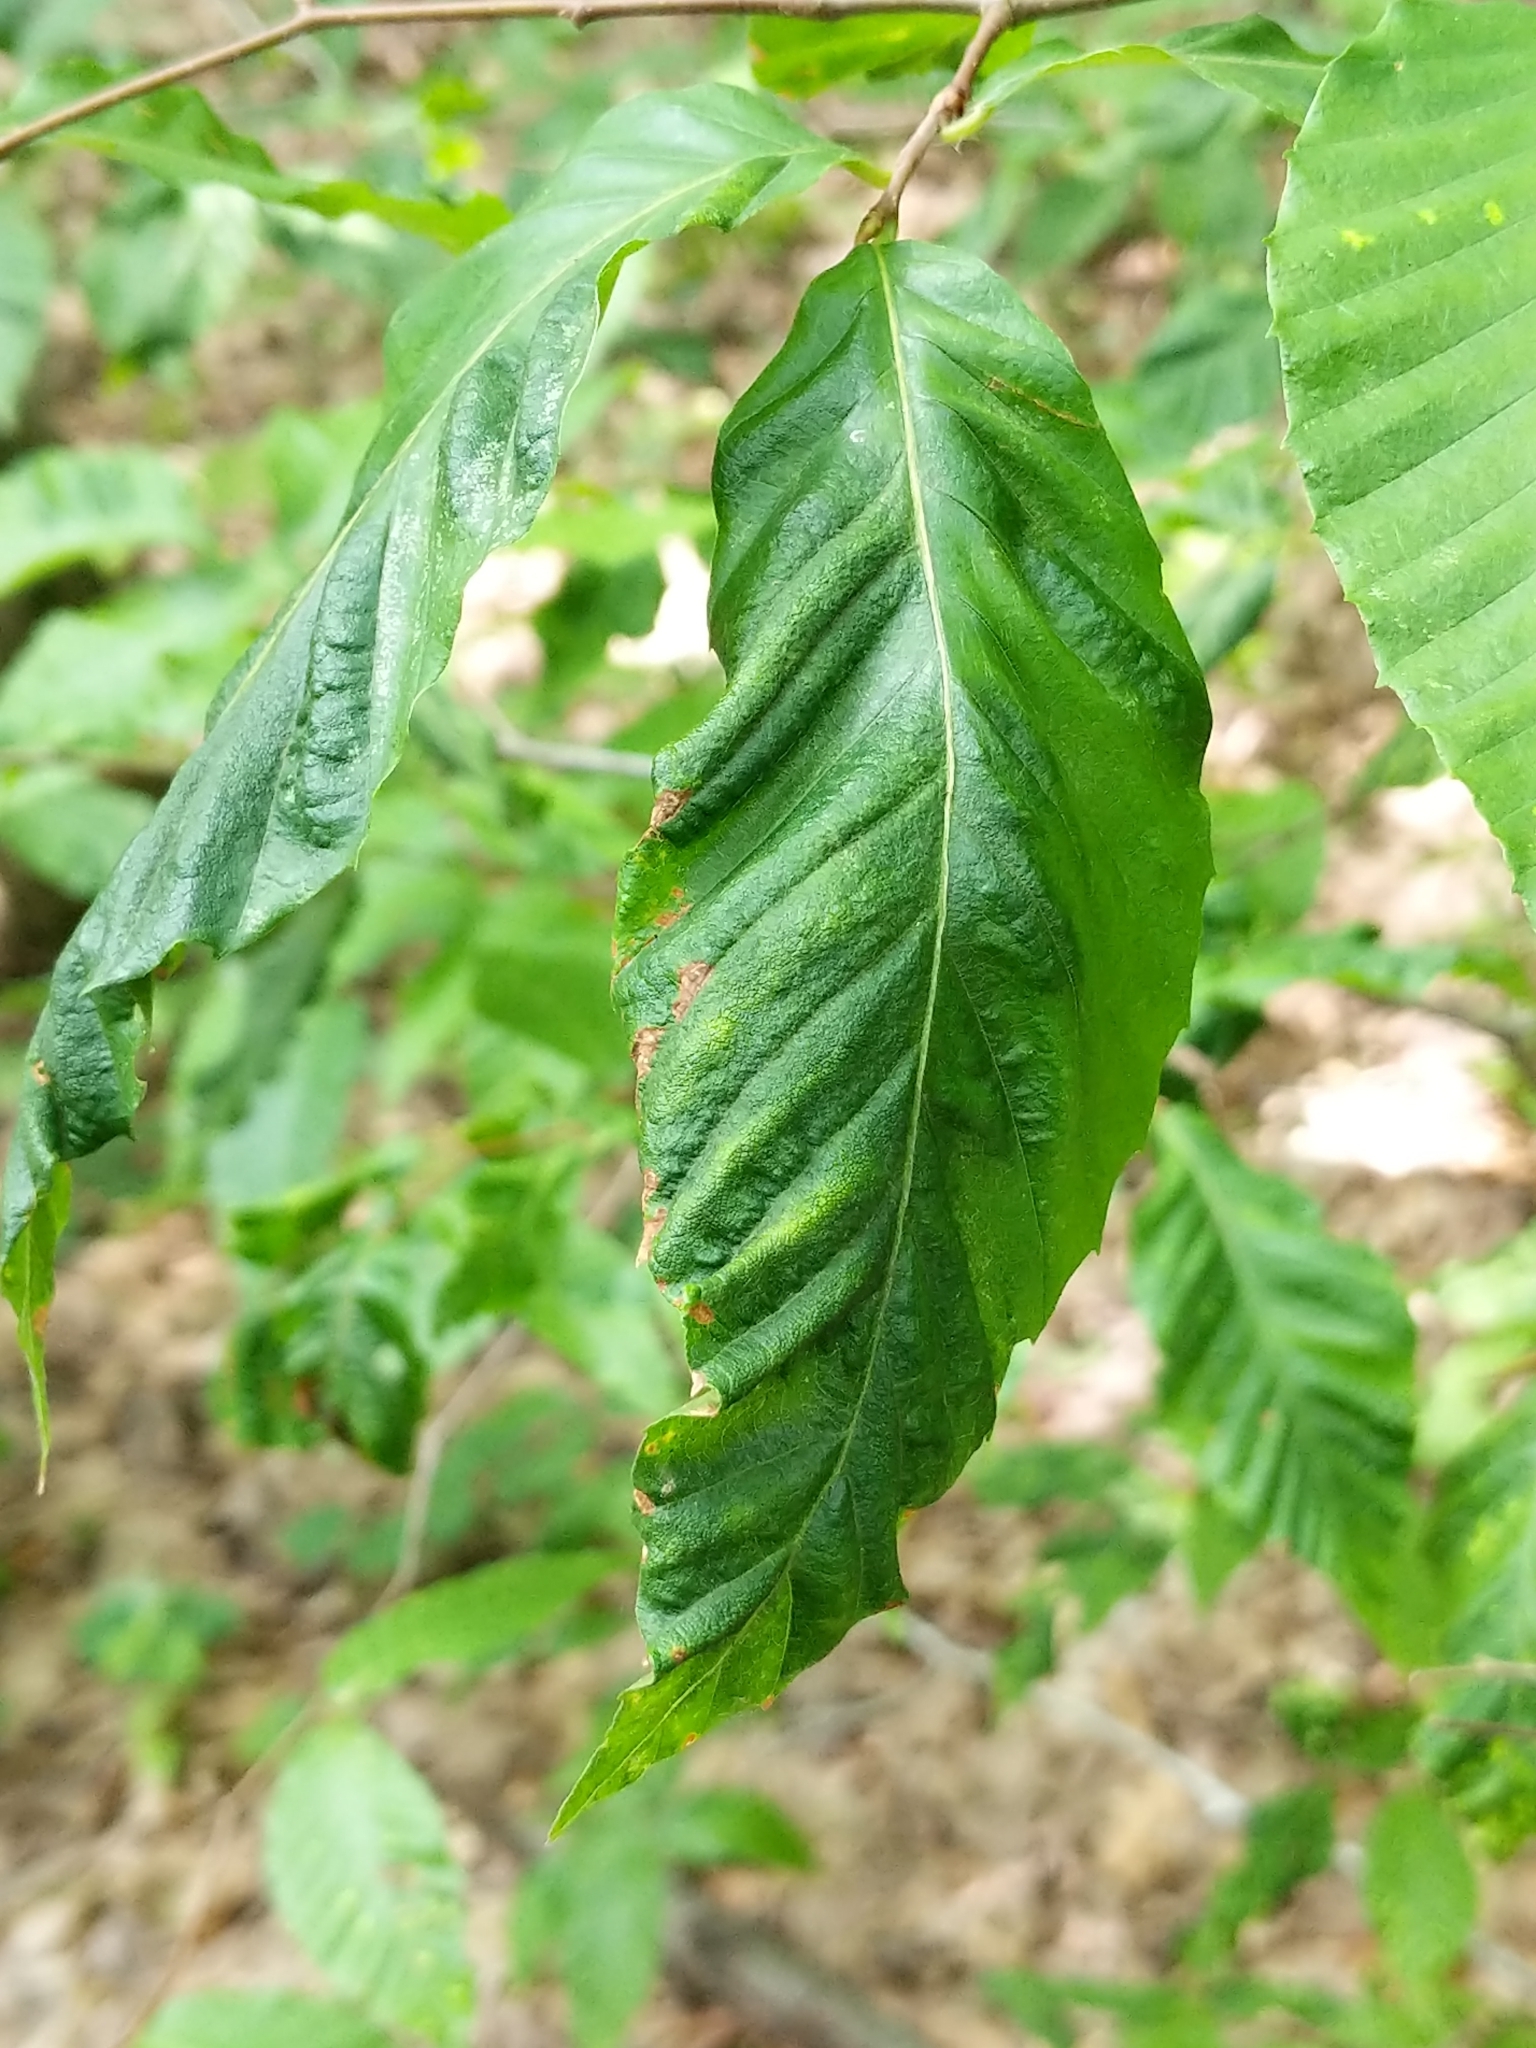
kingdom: Animalia
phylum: Nematoda
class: Chromadorea
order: Rhabditida
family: Anguinidae
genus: Litylenchus
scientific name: Litylenchus crenatae
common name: Beech leaf disease
